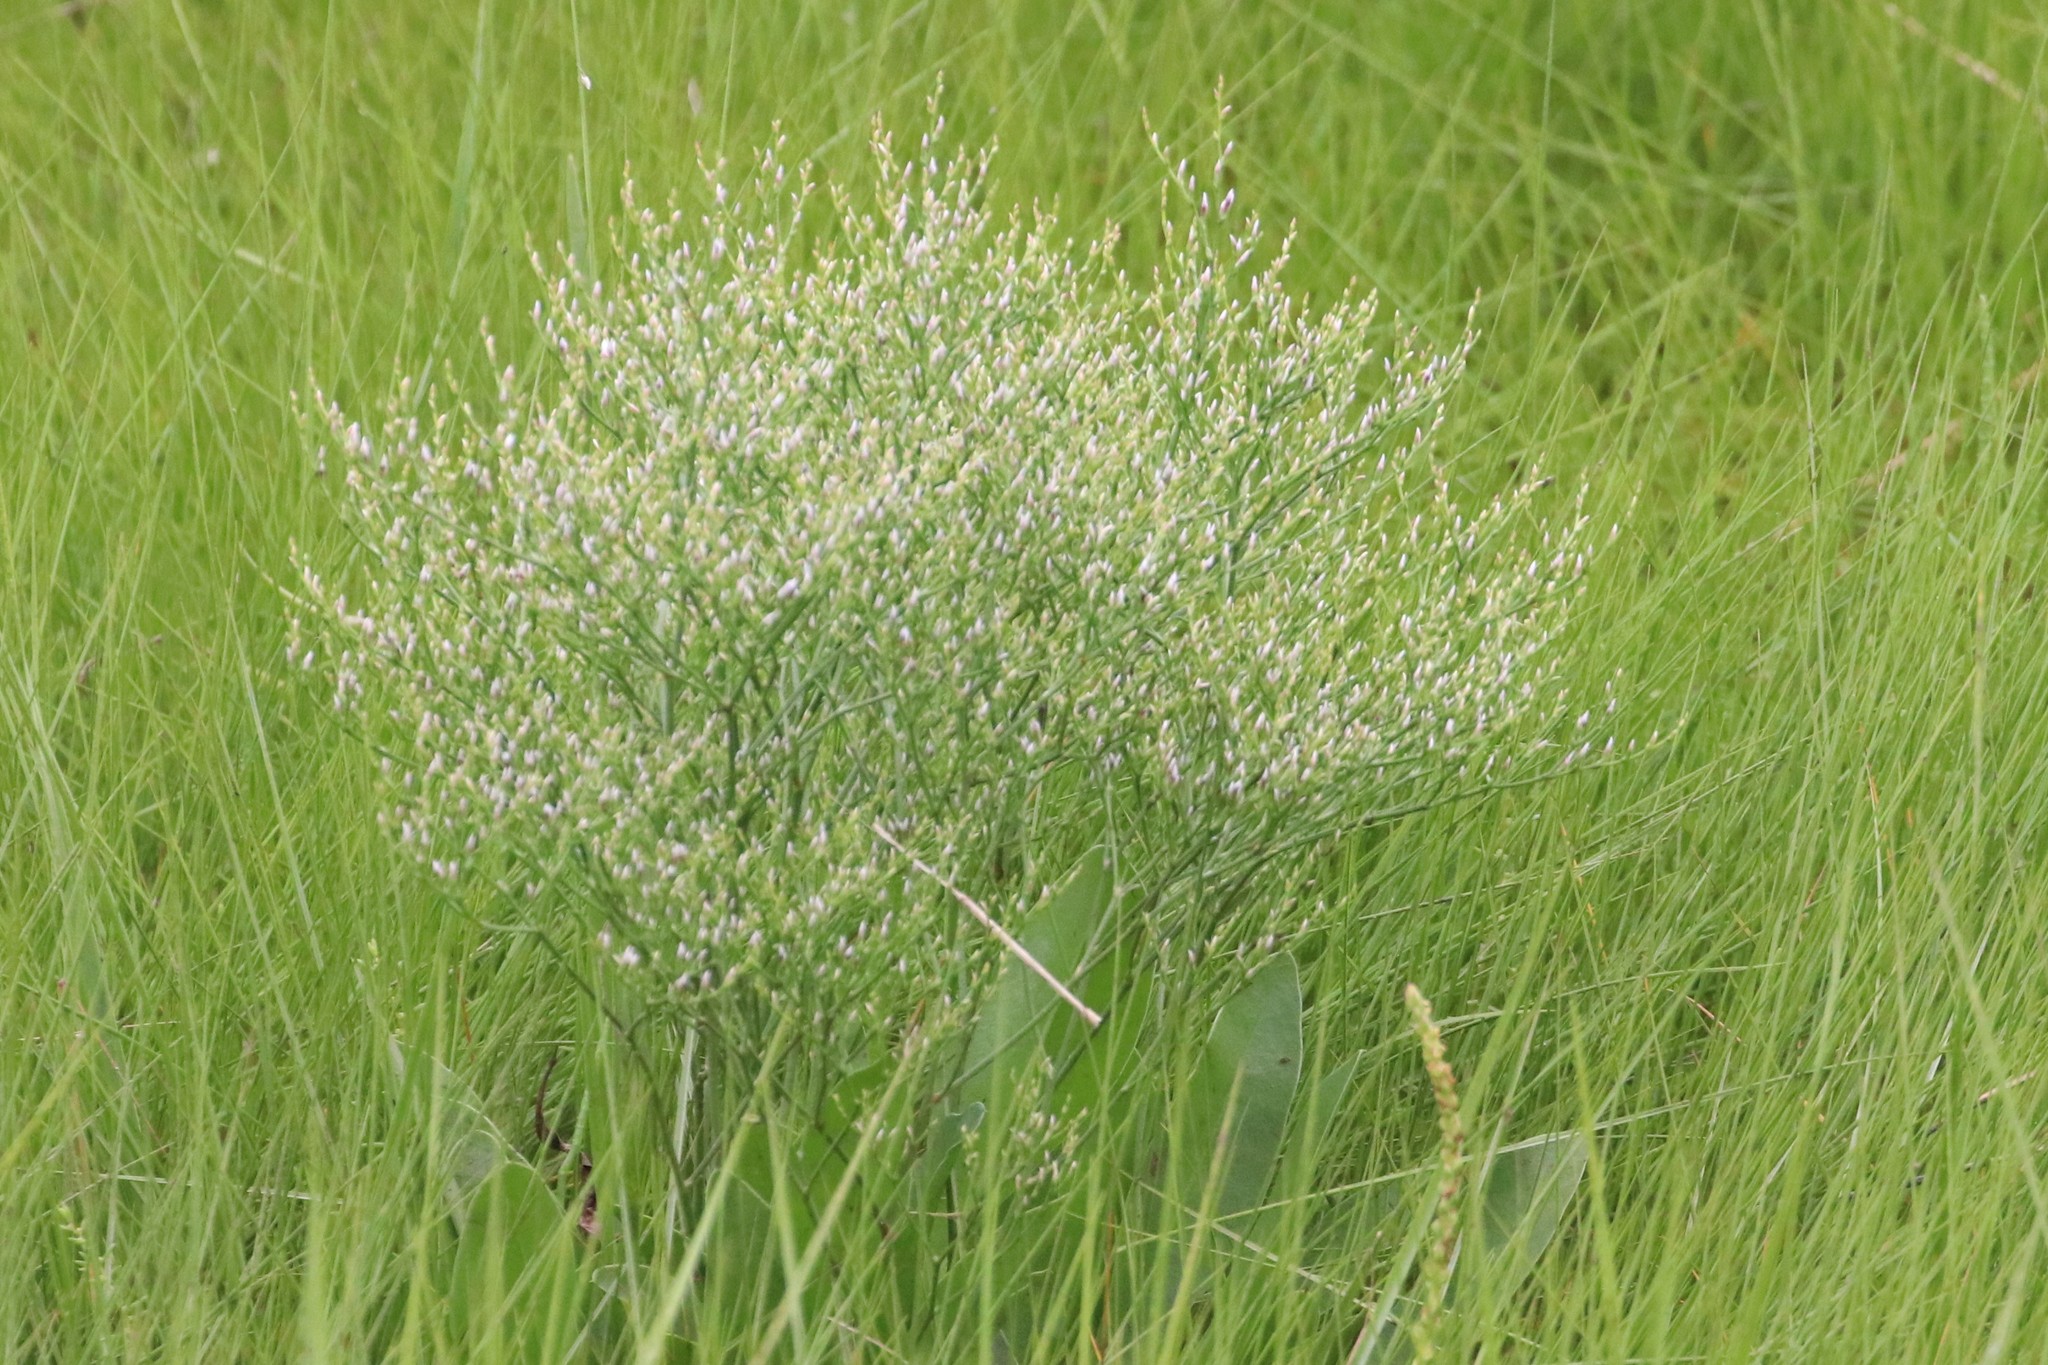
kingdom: Plantae
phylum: Tracheophyta
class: Magnoliopsida
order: Caryophyllales
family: Plumbaginaceae
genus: Limonium
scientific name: Limonium carolinianum
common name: Carolina sea lavender
